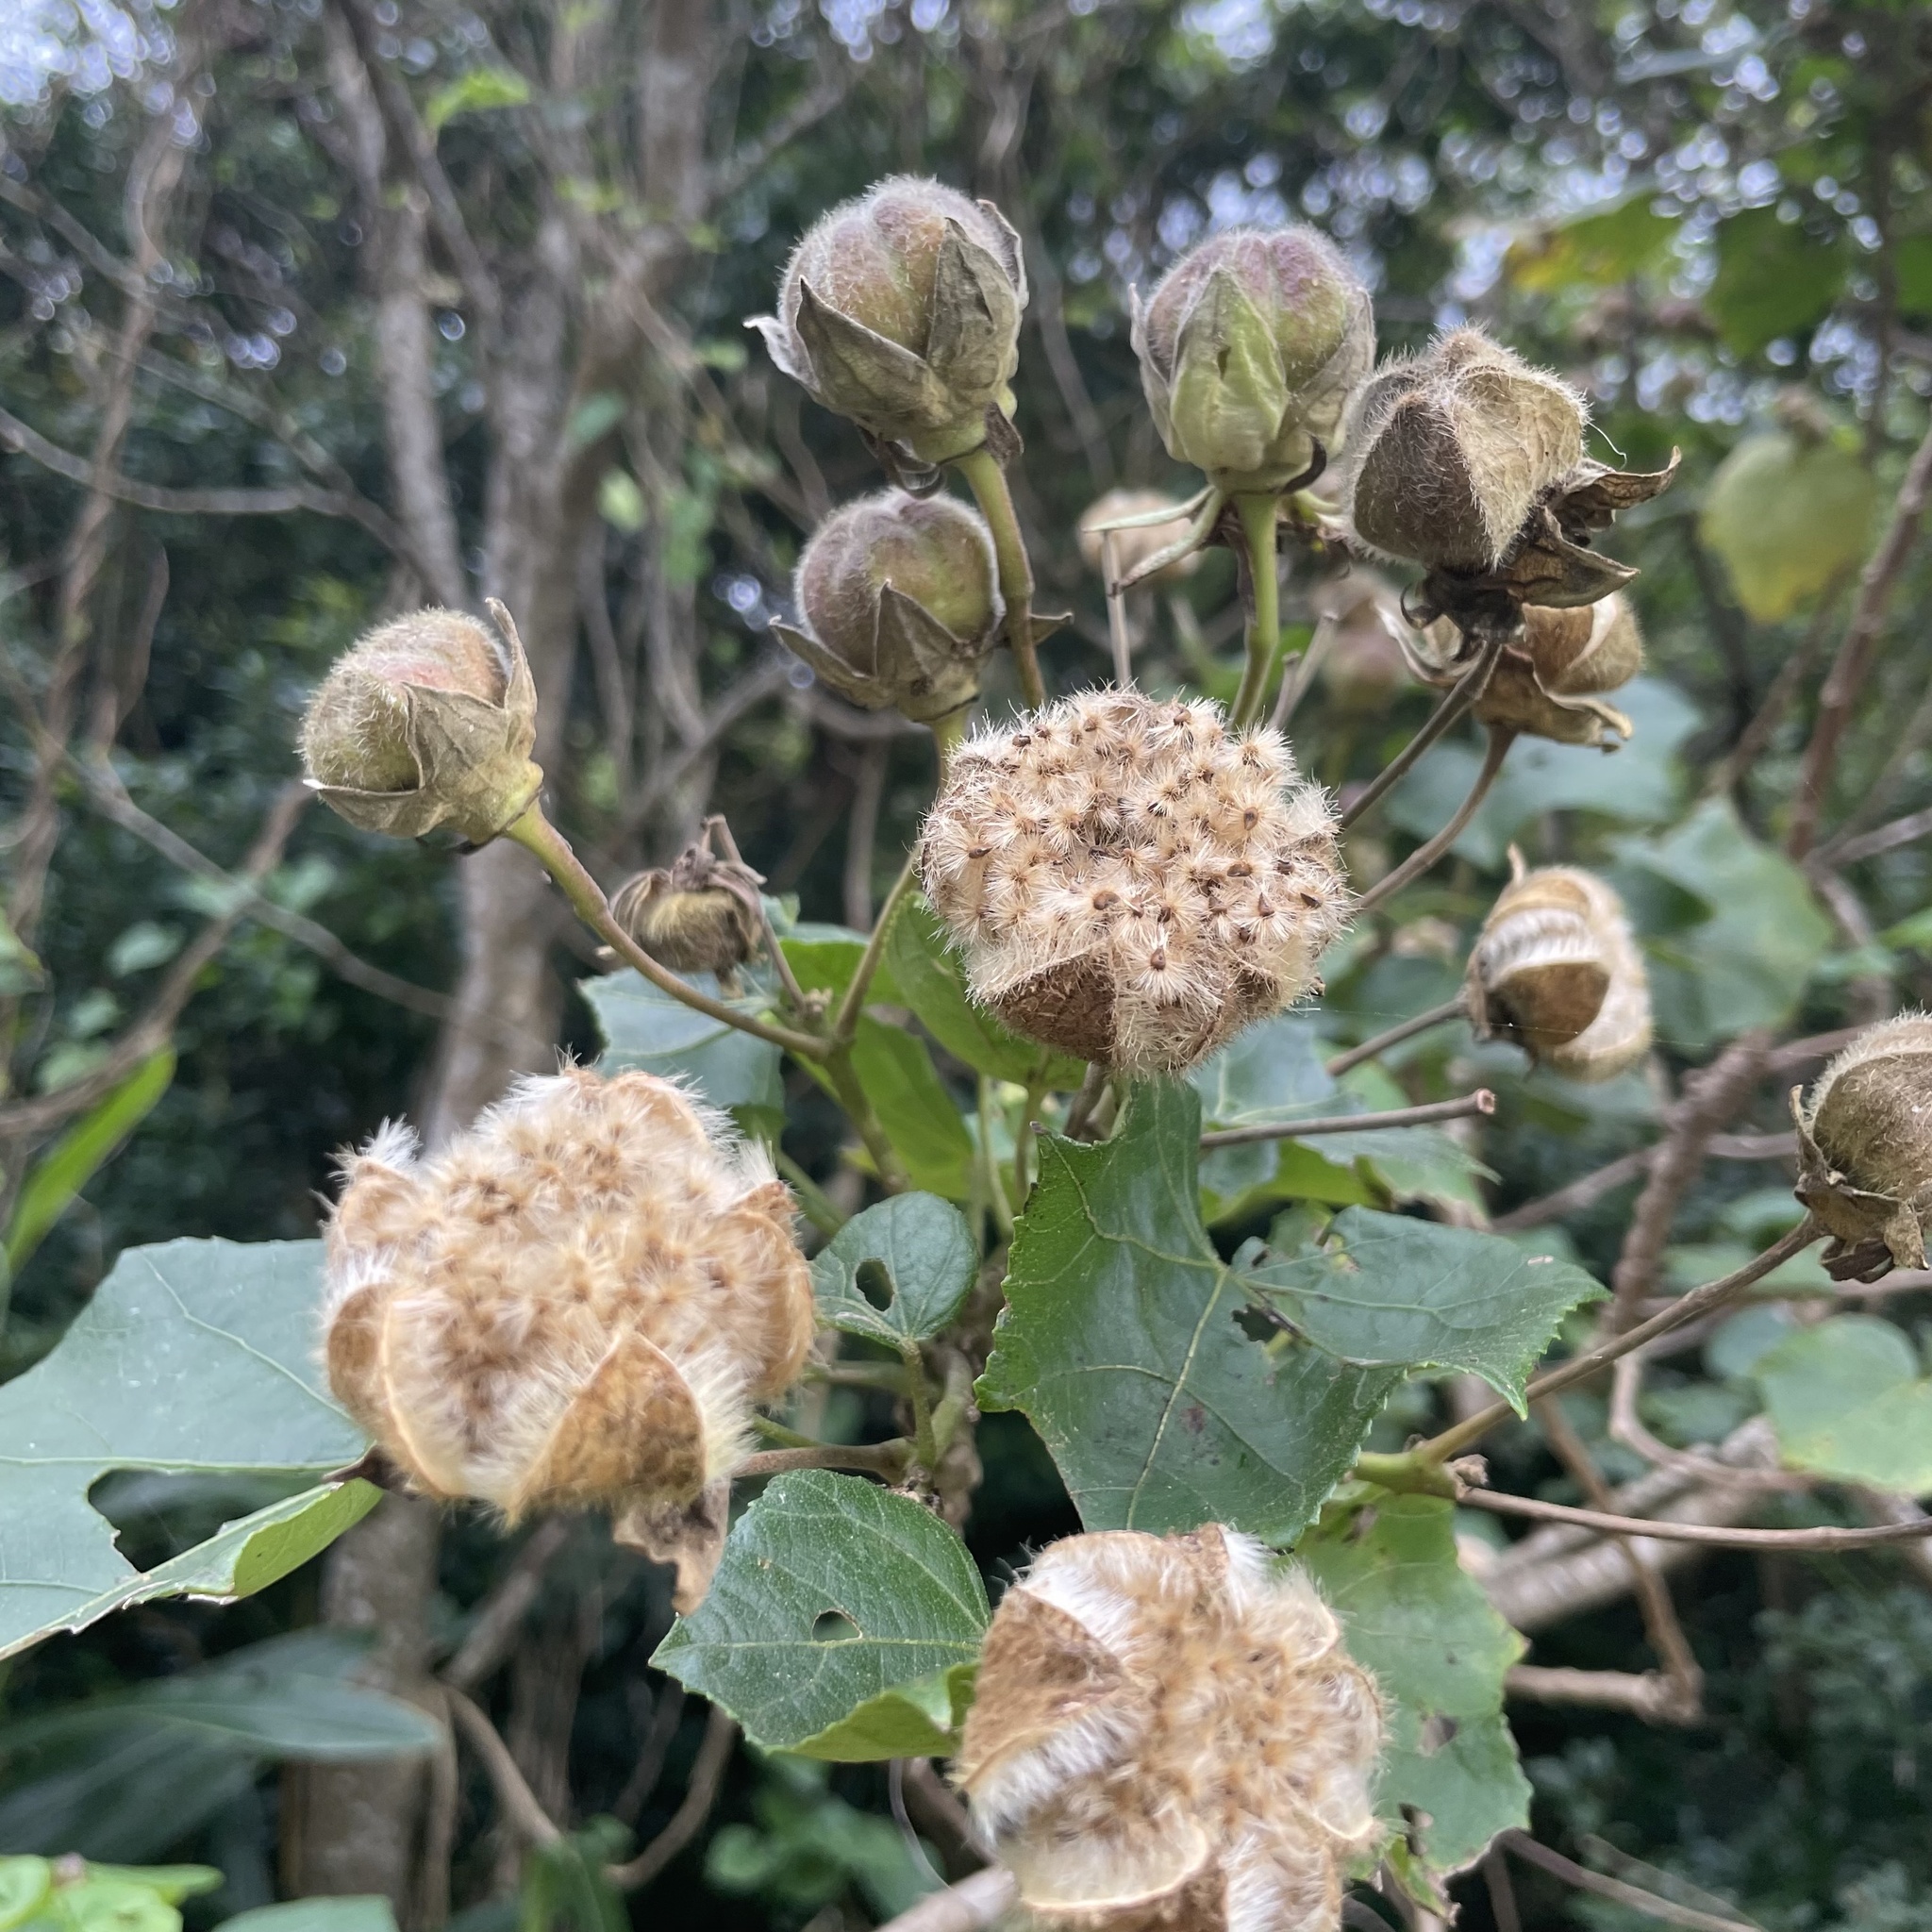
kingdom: Plantae
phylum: Tracheophyta
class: Magnoliopsida
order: Malvales
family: Malvaceae
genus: Hibiscus
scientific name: Hibiscus makinoi
